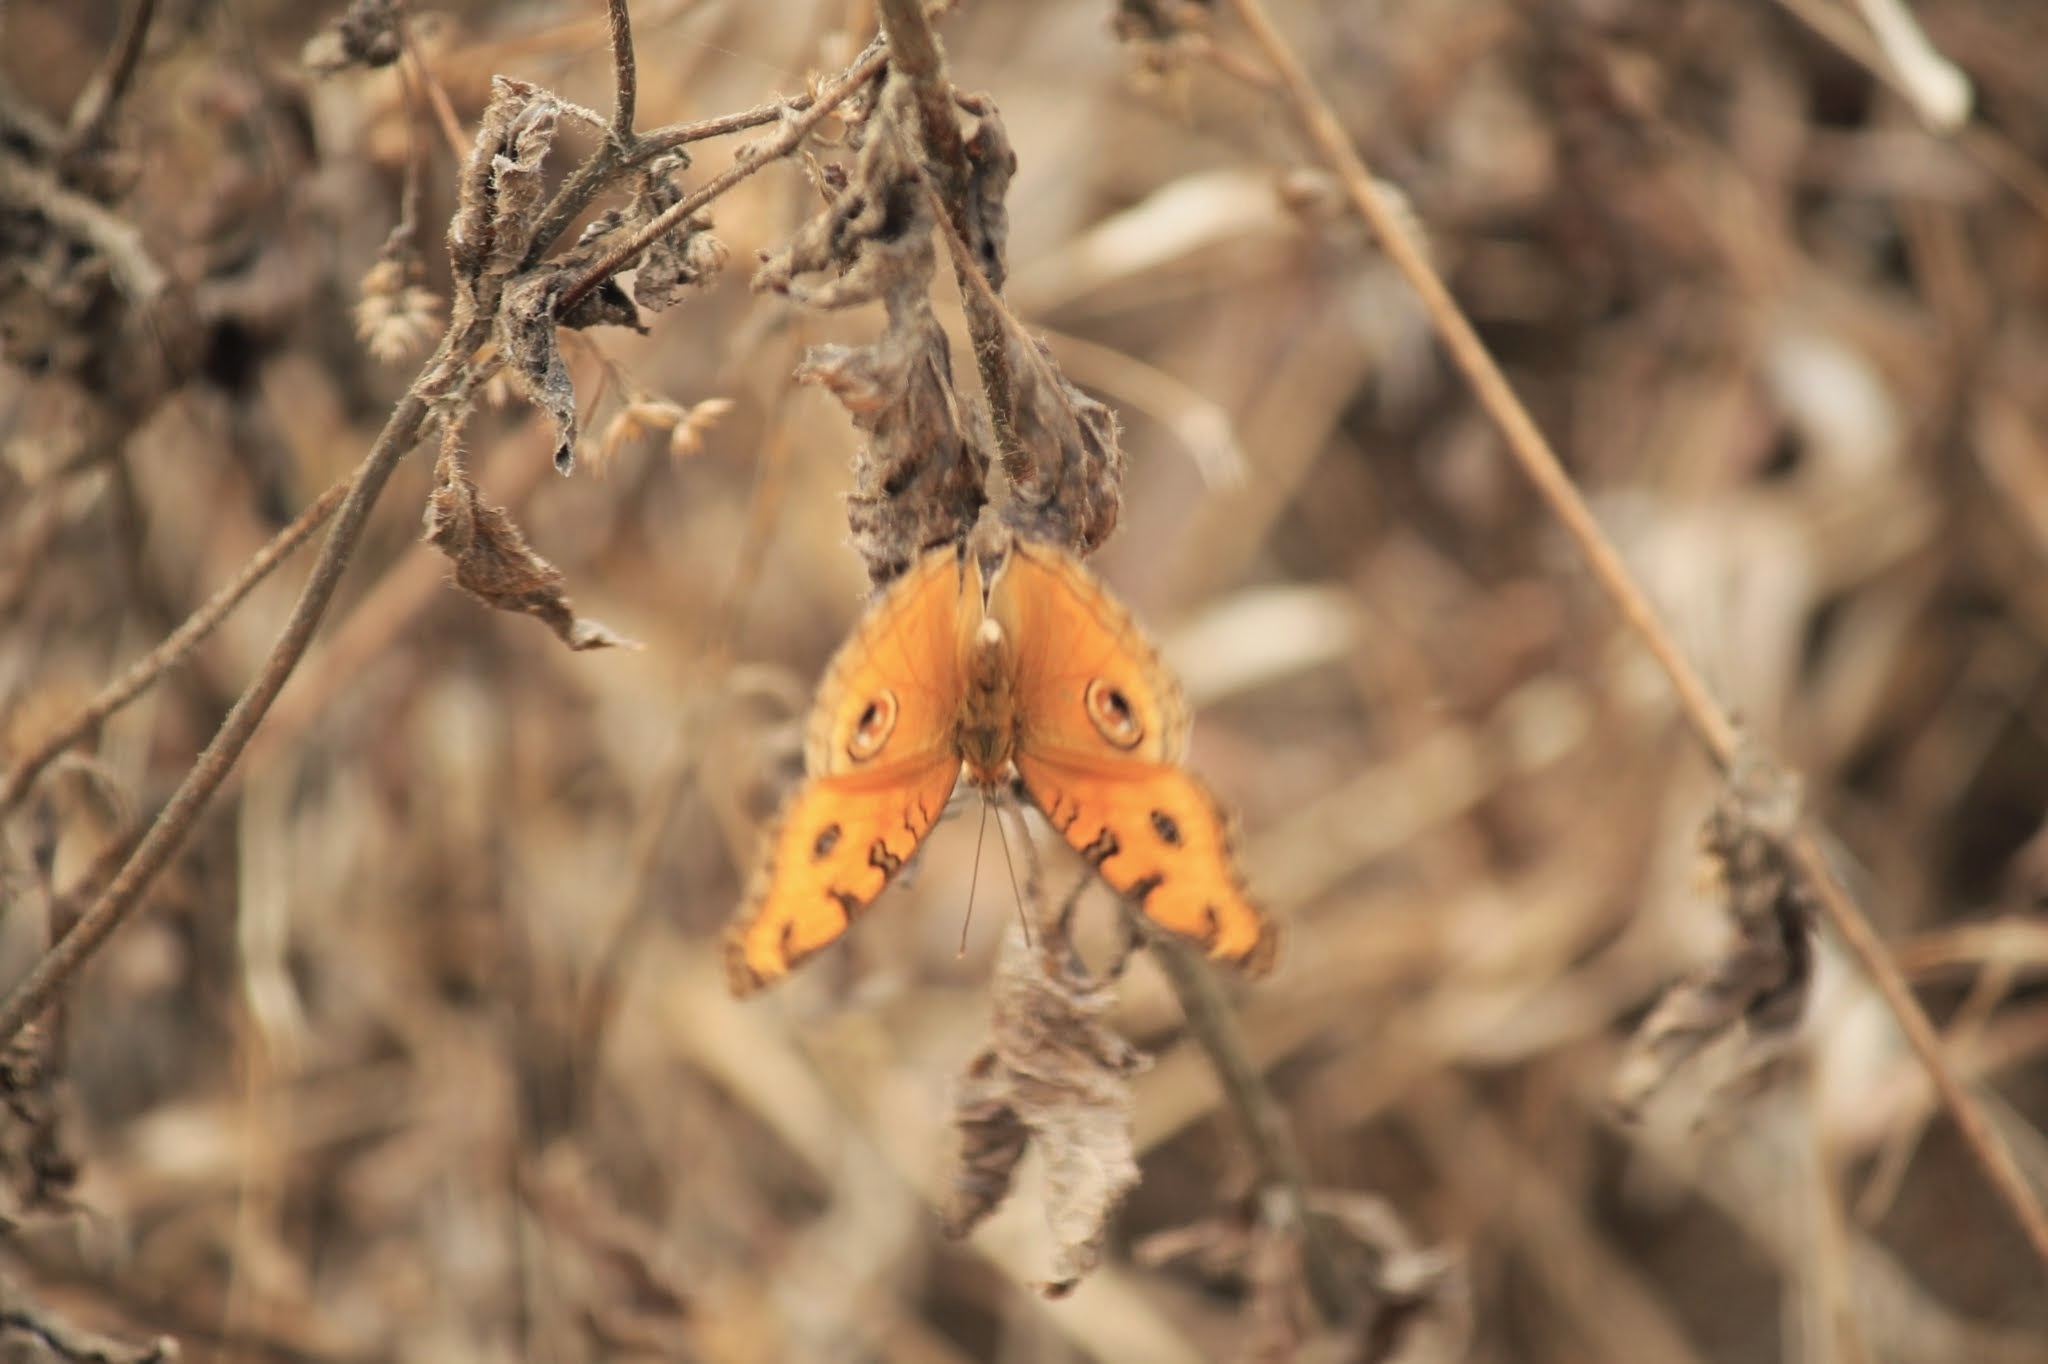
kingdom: Animalia
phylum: Arthropoda
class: Insecta
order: Lepidoptera
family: Nymphalidae
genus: Junonia
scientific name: Junonia almana
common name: Peacock pansy
